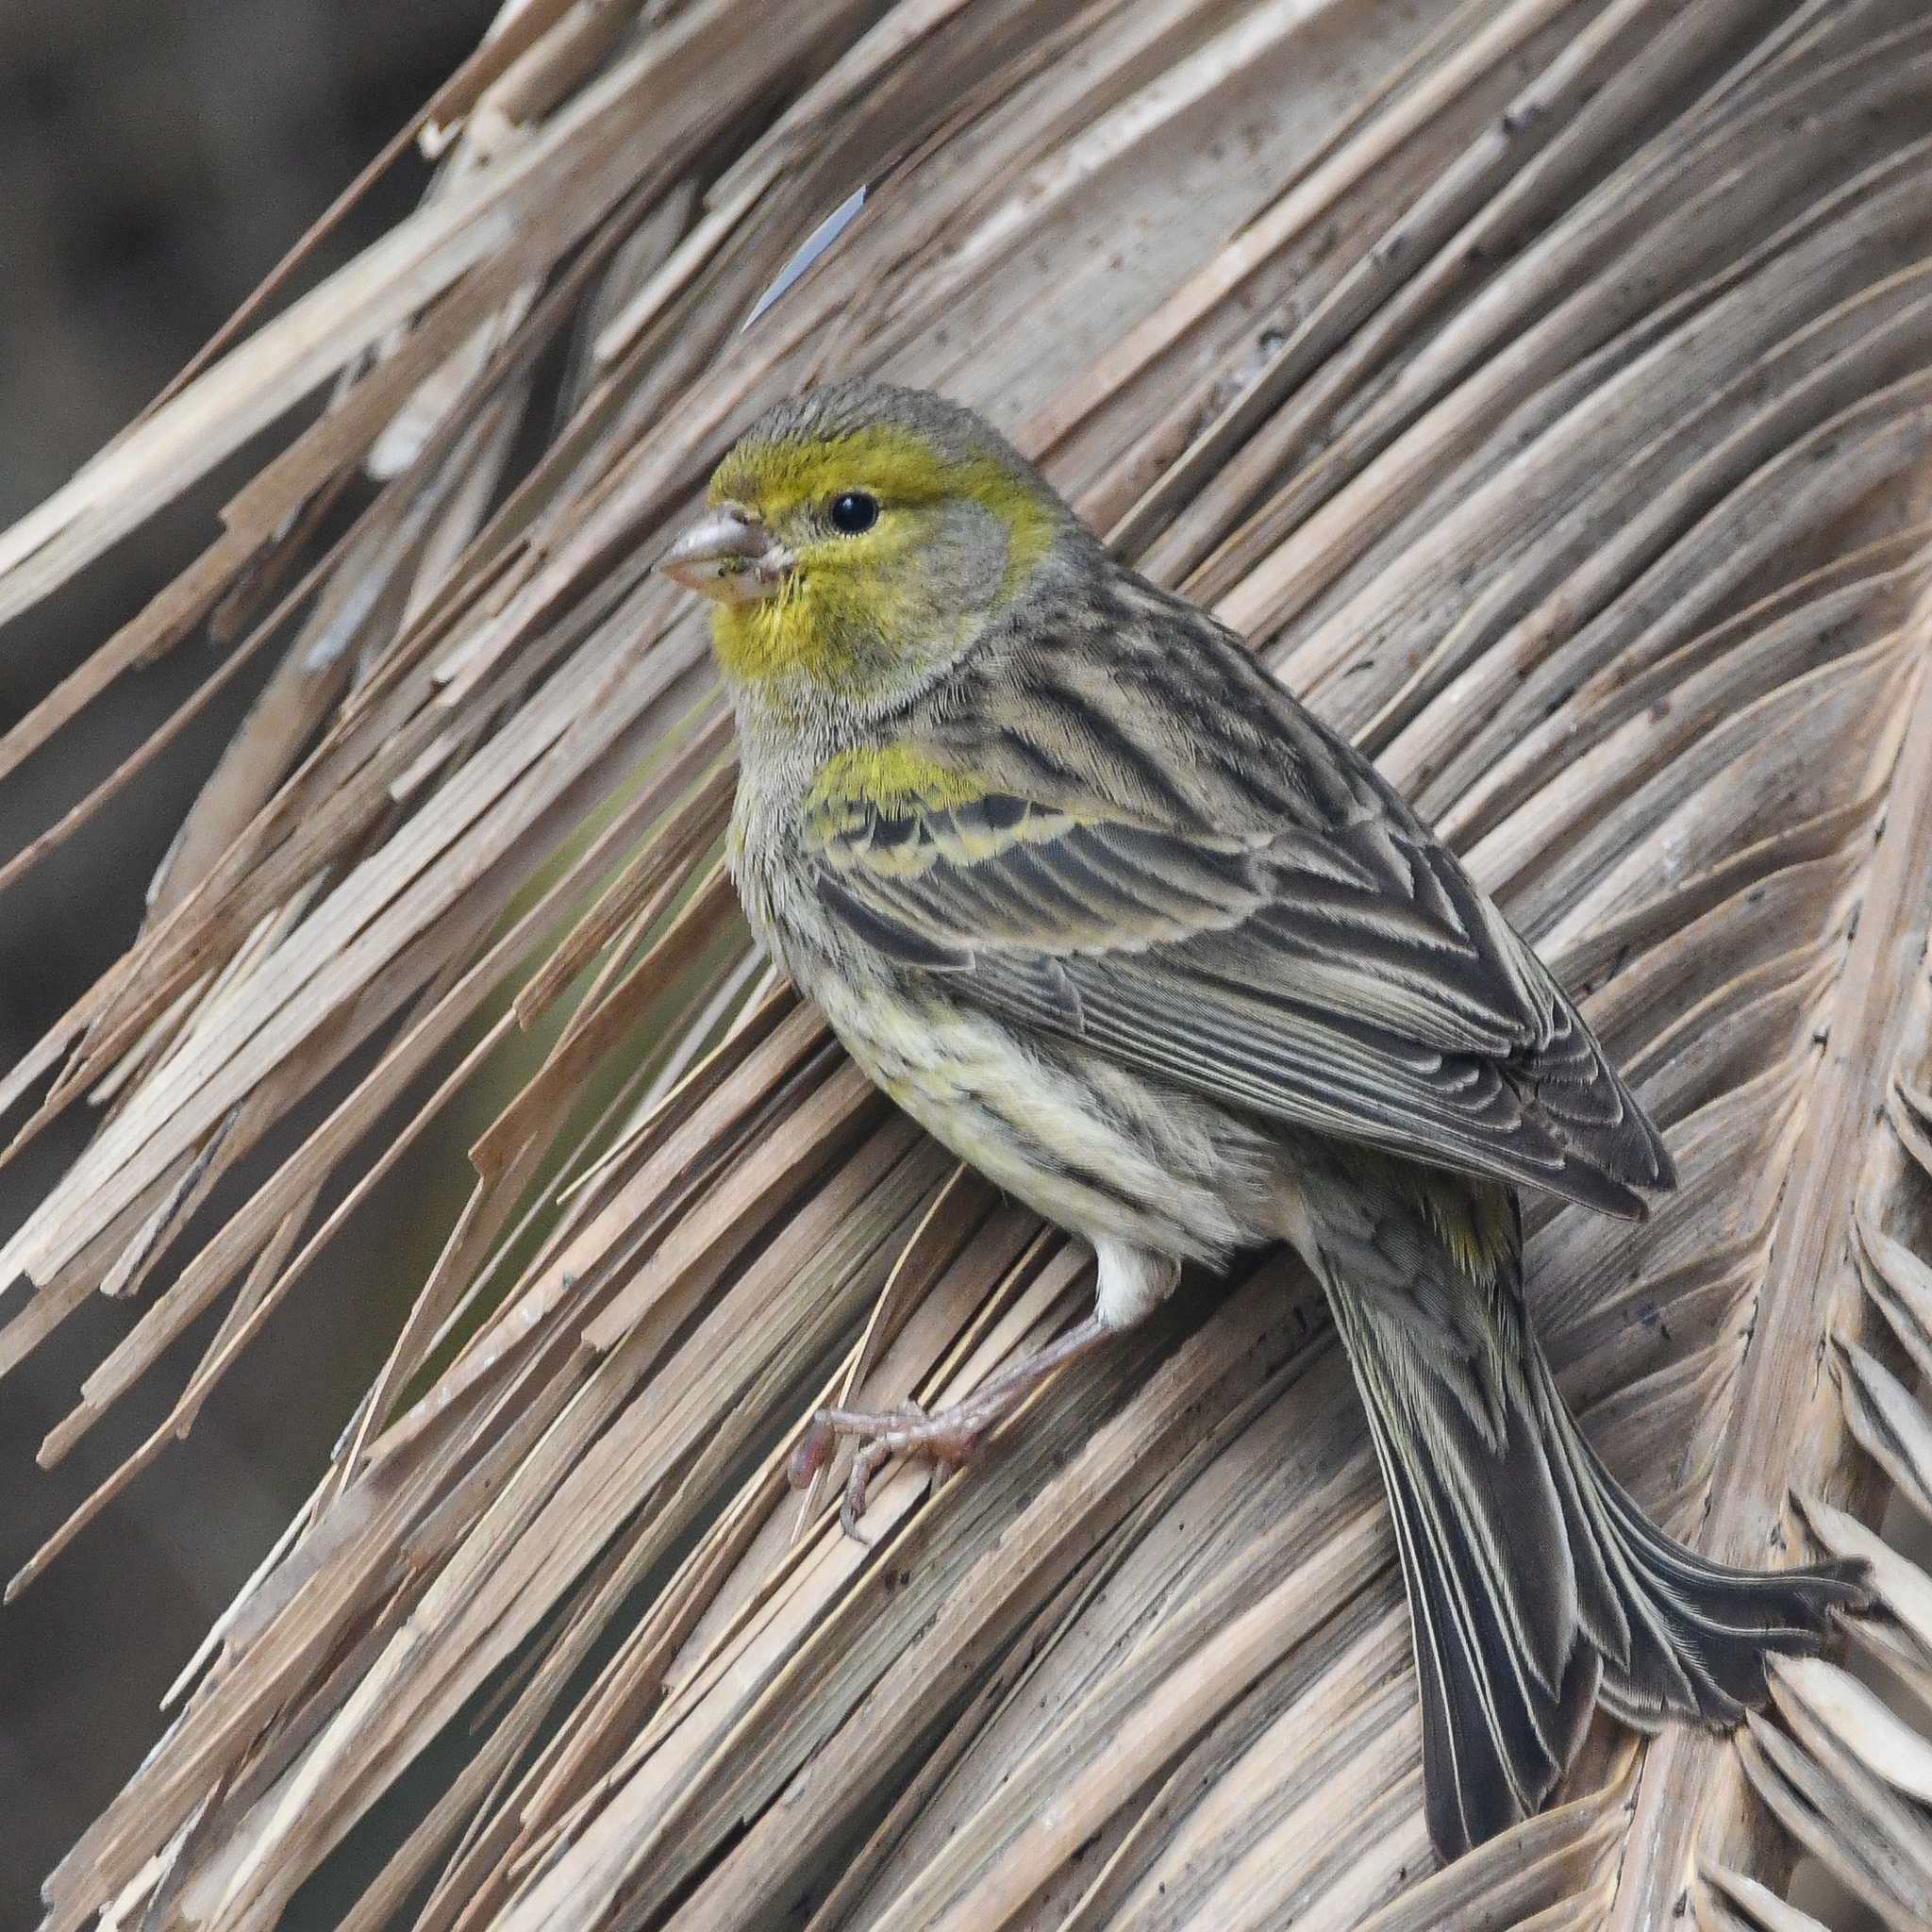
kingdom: Animalia
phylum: Chordata
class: Aves
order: Passeriformes
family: Fringillidae
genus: Serinus
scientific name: Serinus canaria
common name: Atlantic canary
